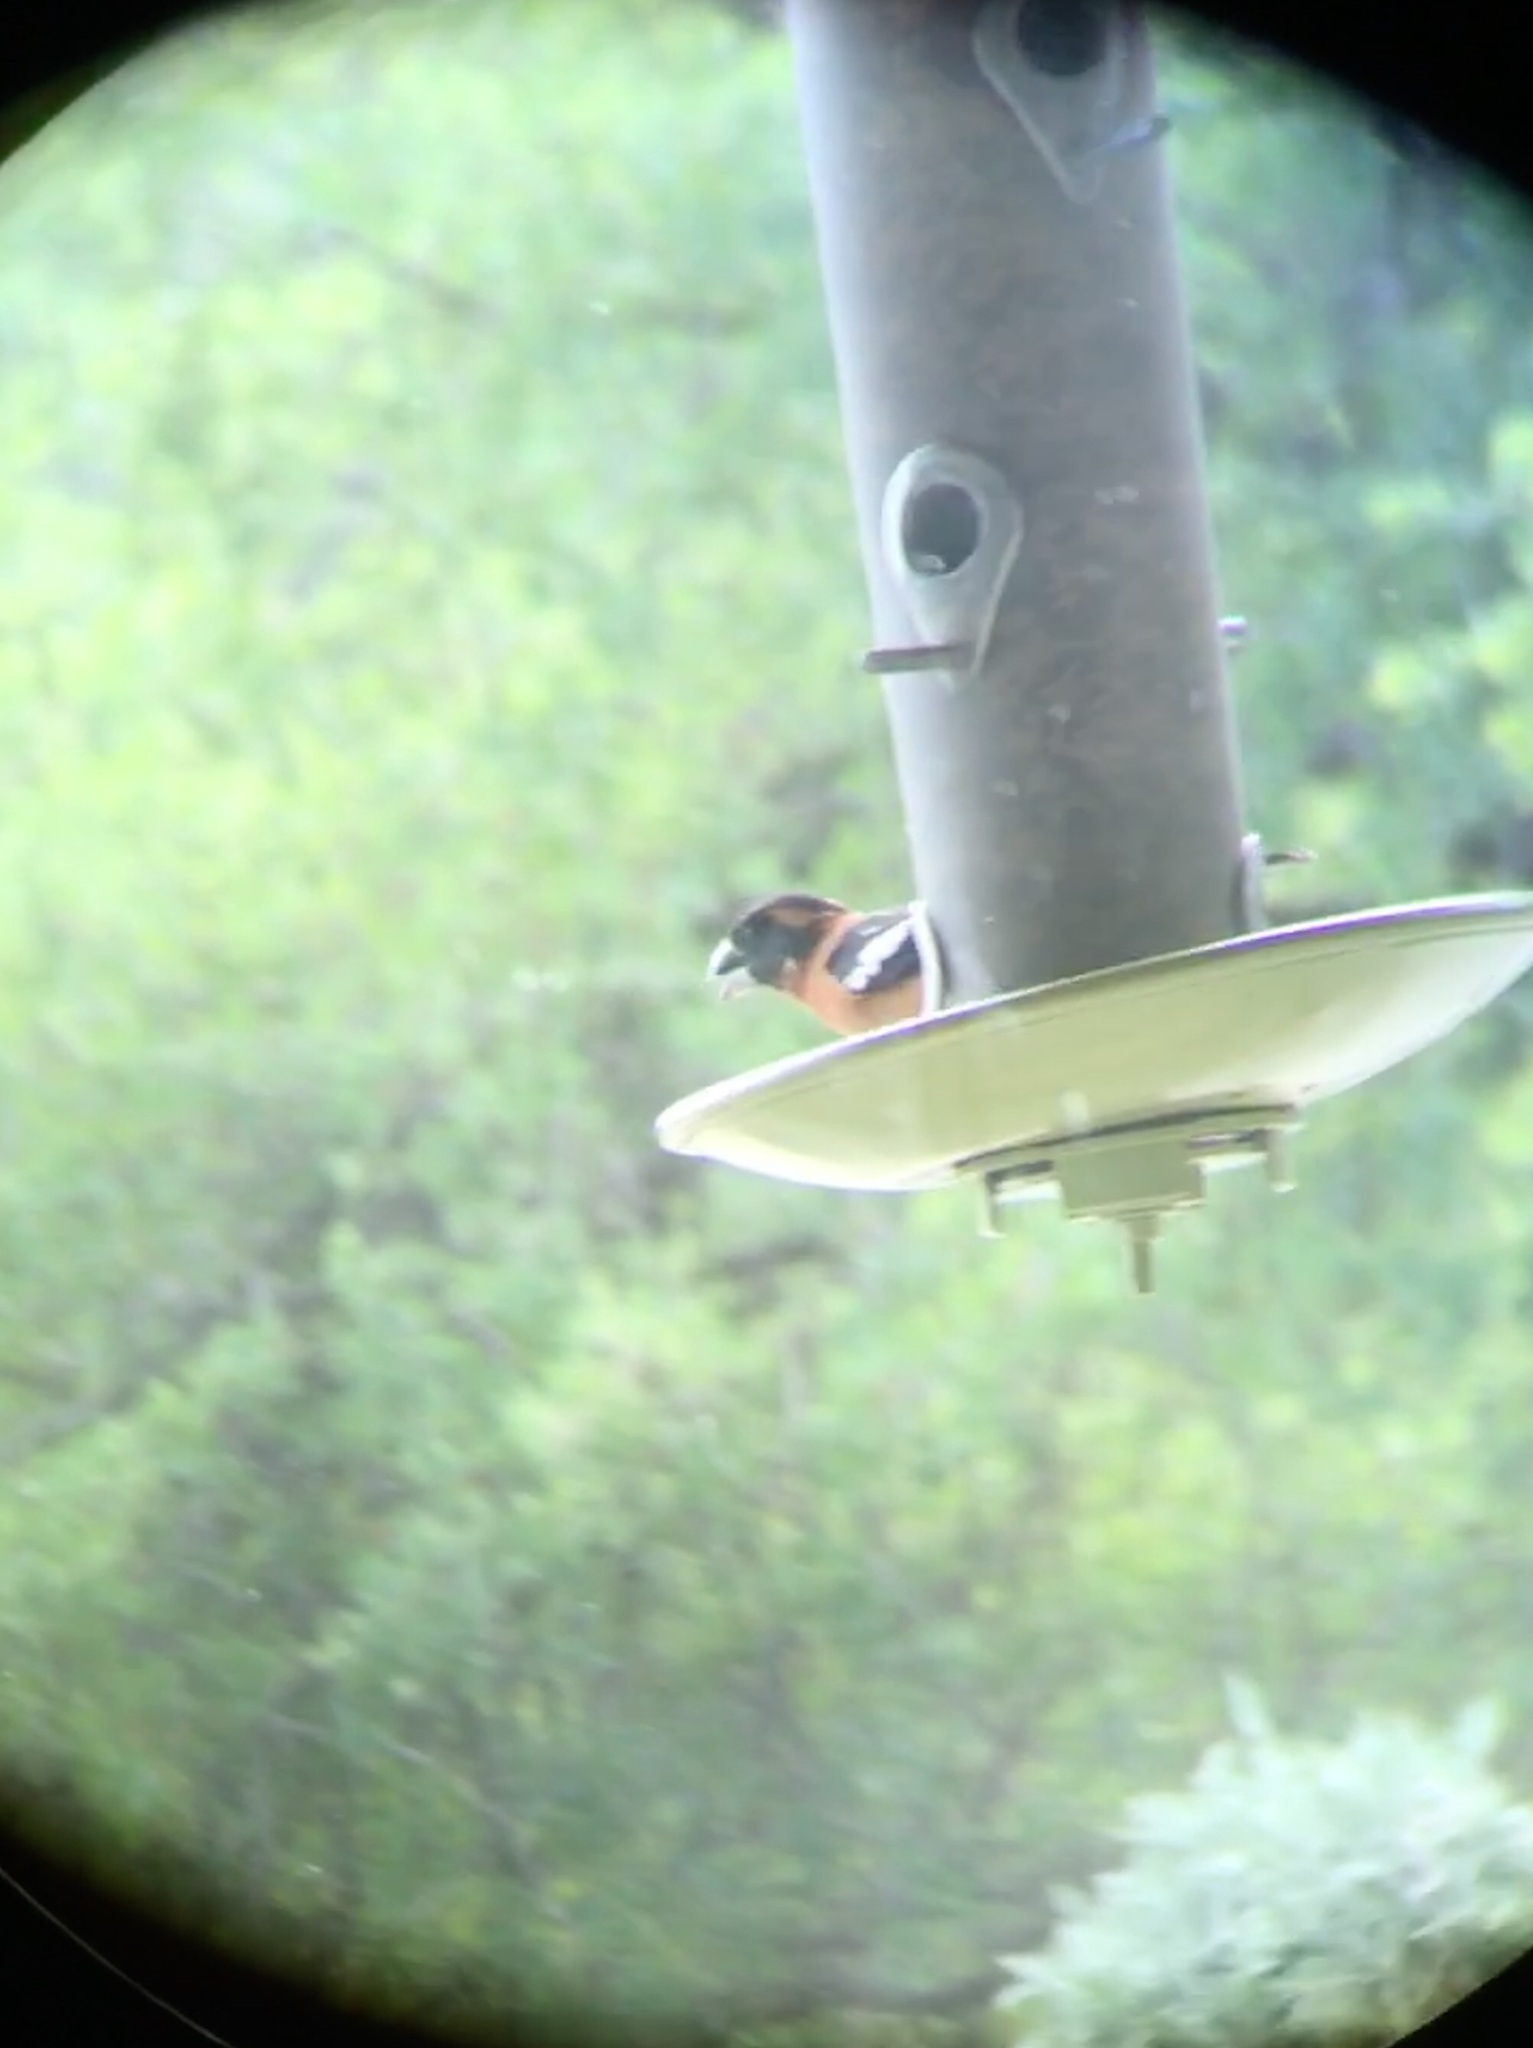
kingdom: Animalia
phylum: Chordata
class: Aves
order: Passeriformes
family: Cardinalidae
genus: Pheucticus
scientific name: Pheucticus melanocephalus
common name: Black-headed grosbeak
